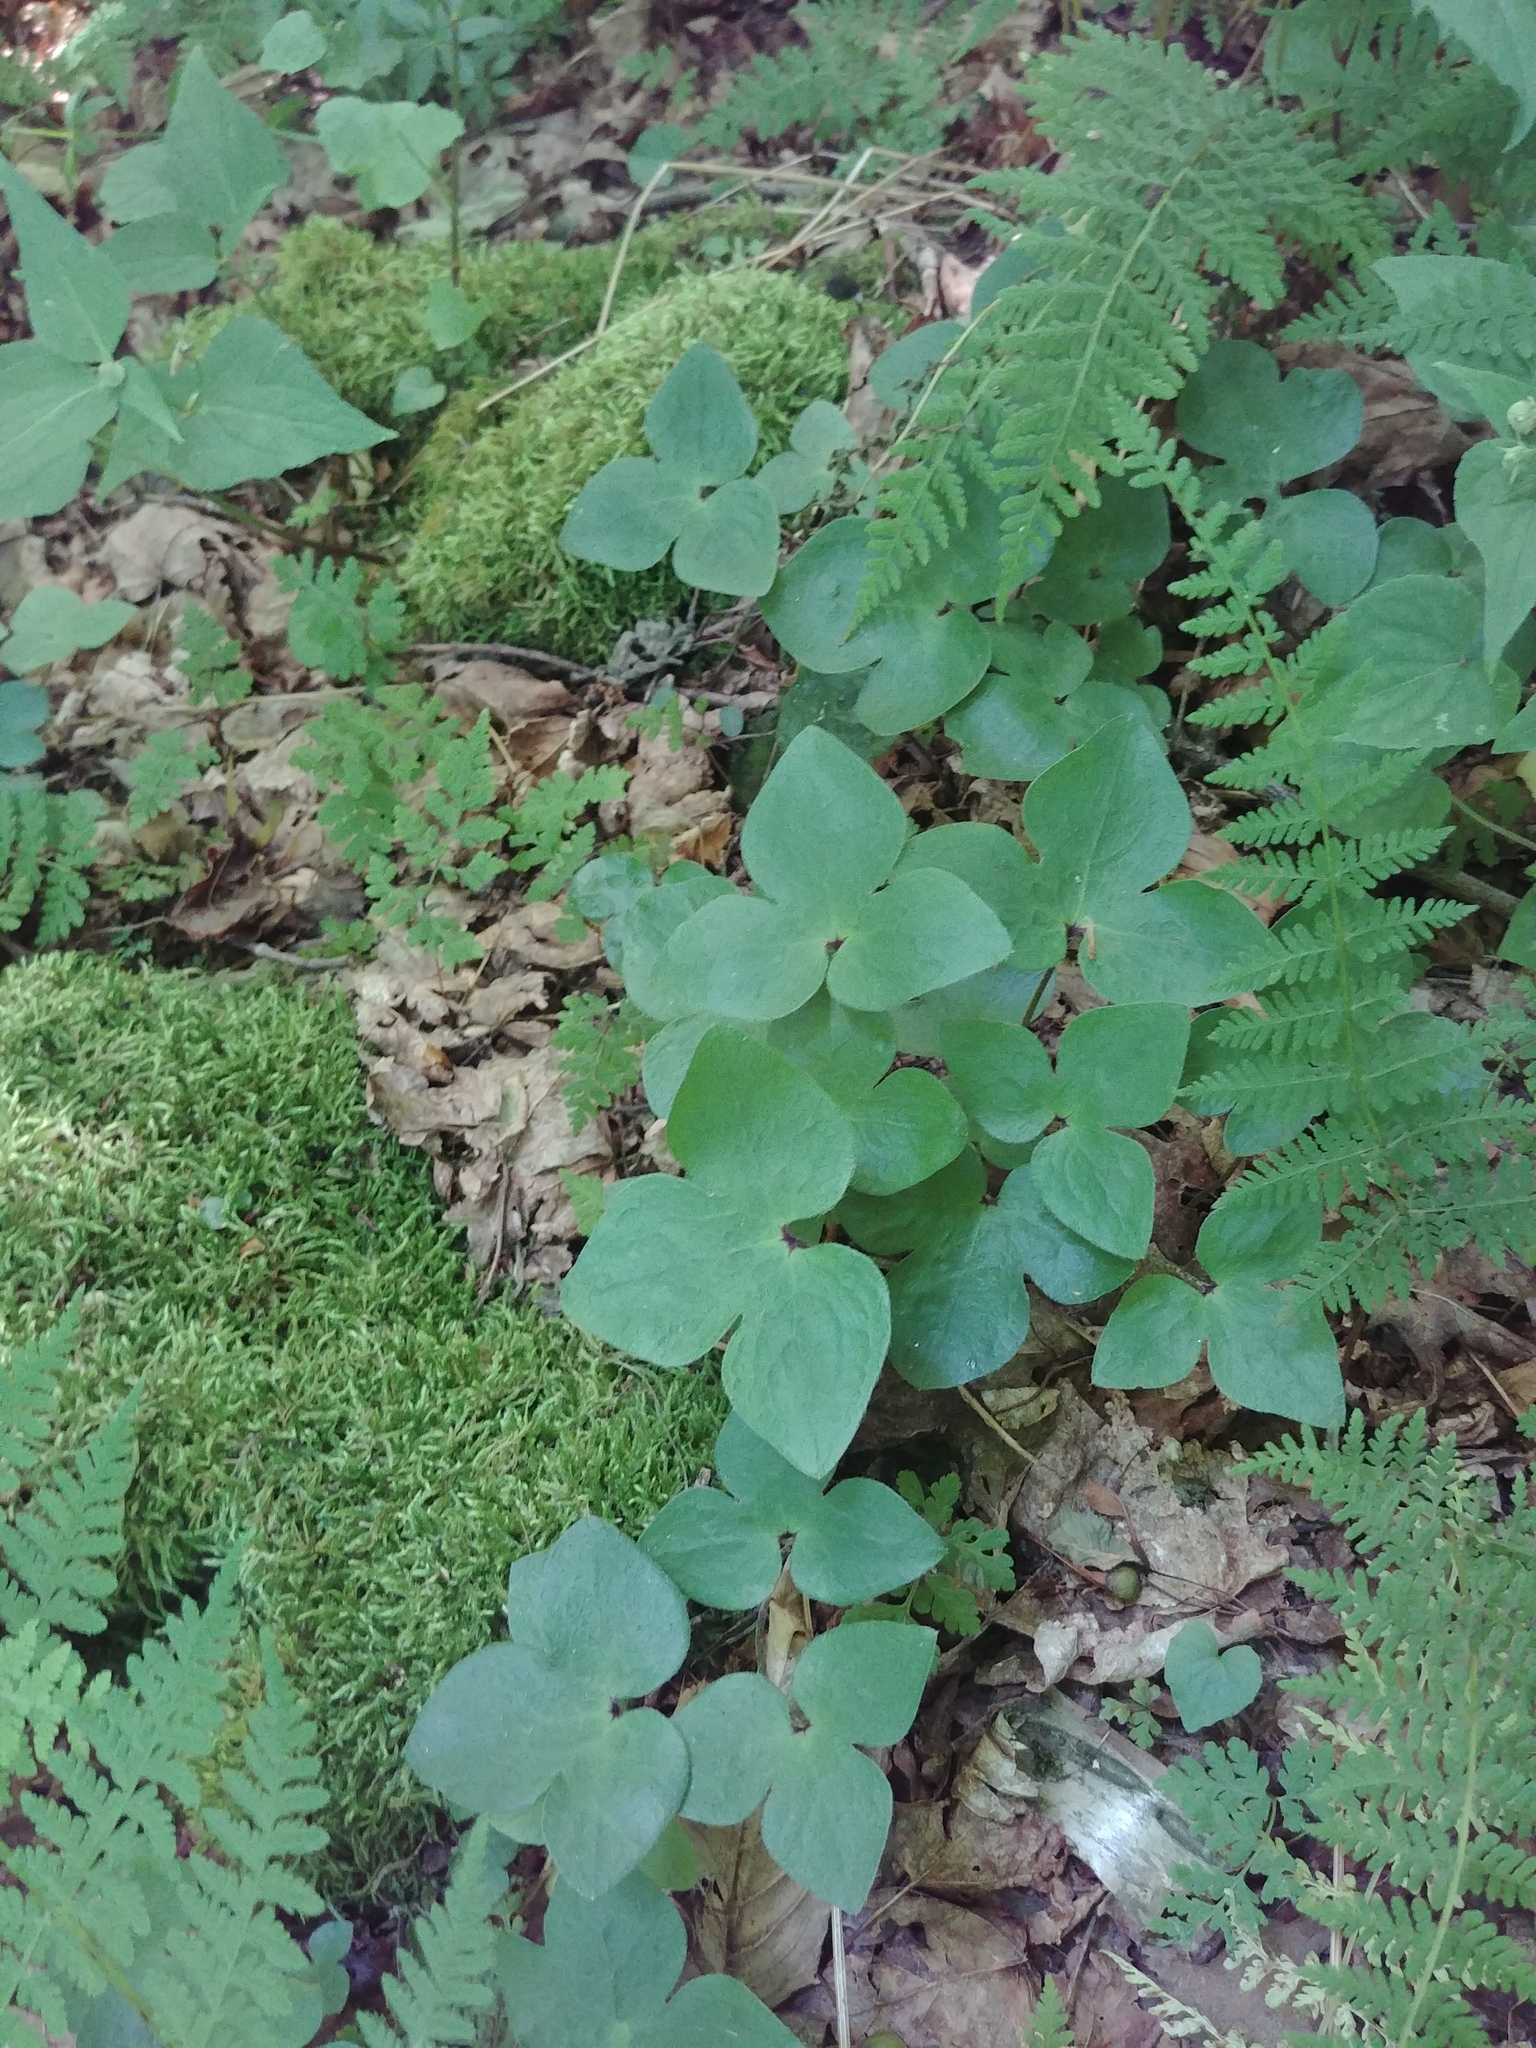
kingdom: Plantae
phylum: Tracheophyta
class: Magnoliopsida
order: Ranunculales
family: Ranunculaceae
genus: Hepatica
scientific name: Hepatica acutiloba
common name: Sharp-lobed hepatica
